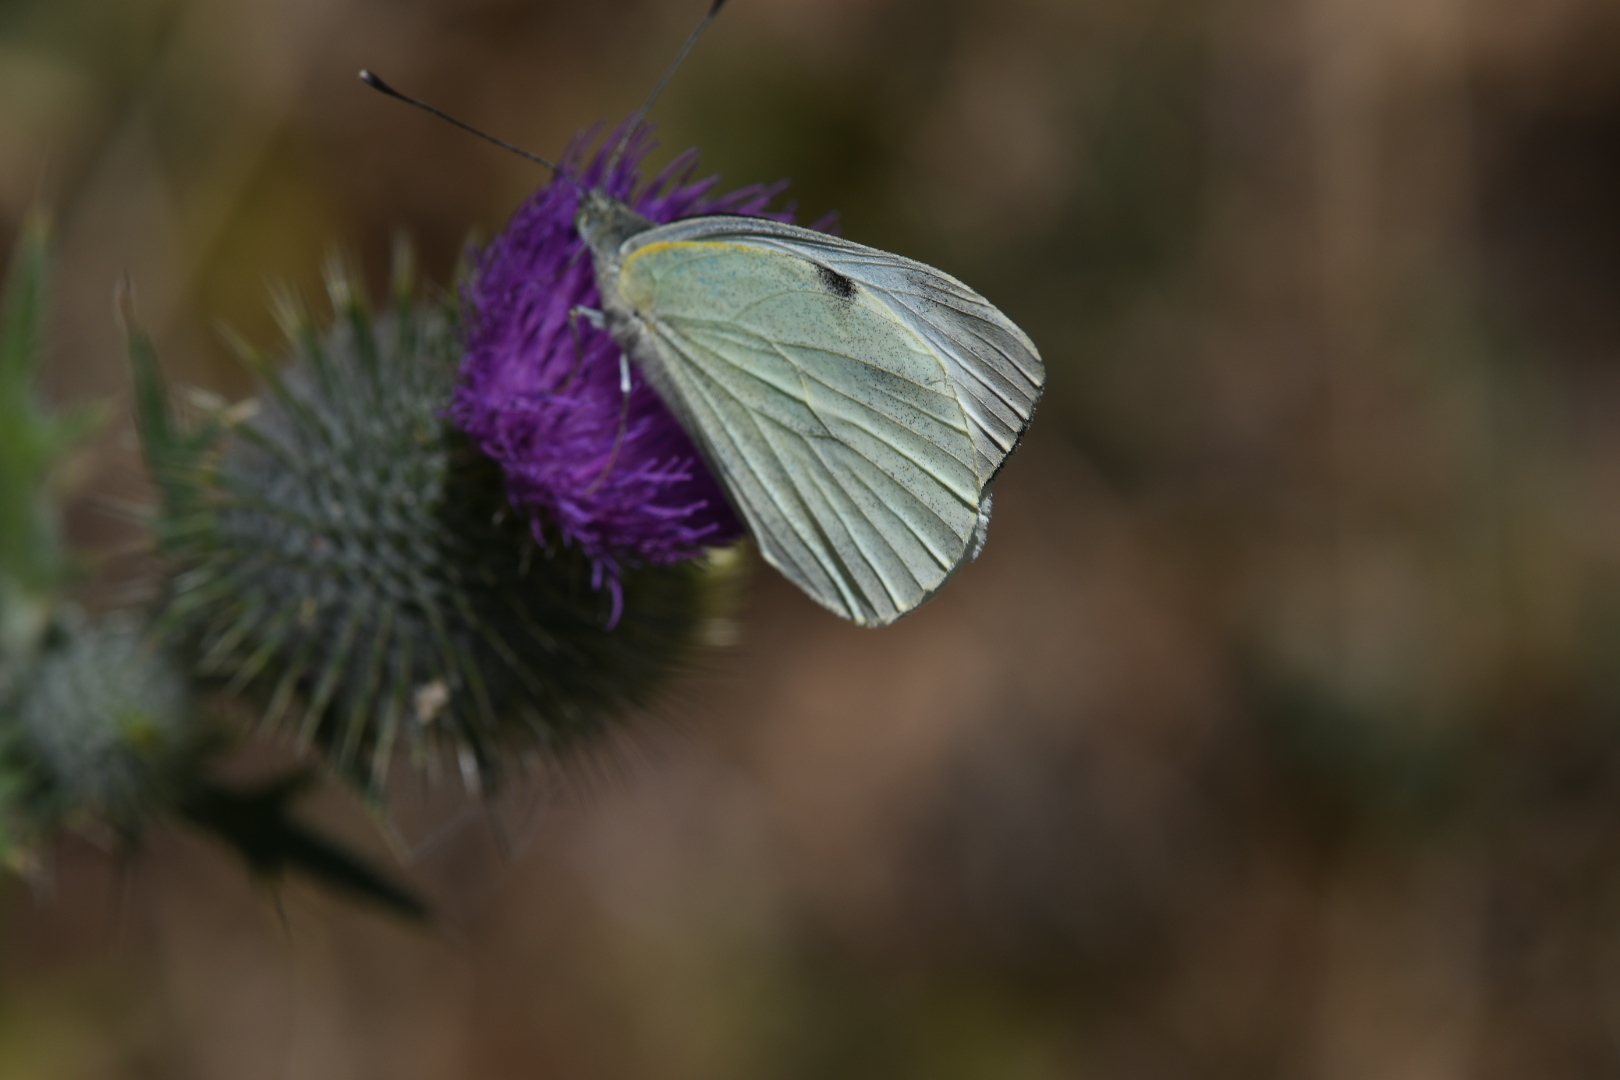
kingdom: Animalia
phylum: Arthropoda
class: Insecta
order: Lepidoptera
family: Pieridae
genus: Pieris
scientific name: Pieris brassicae
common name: Large white
